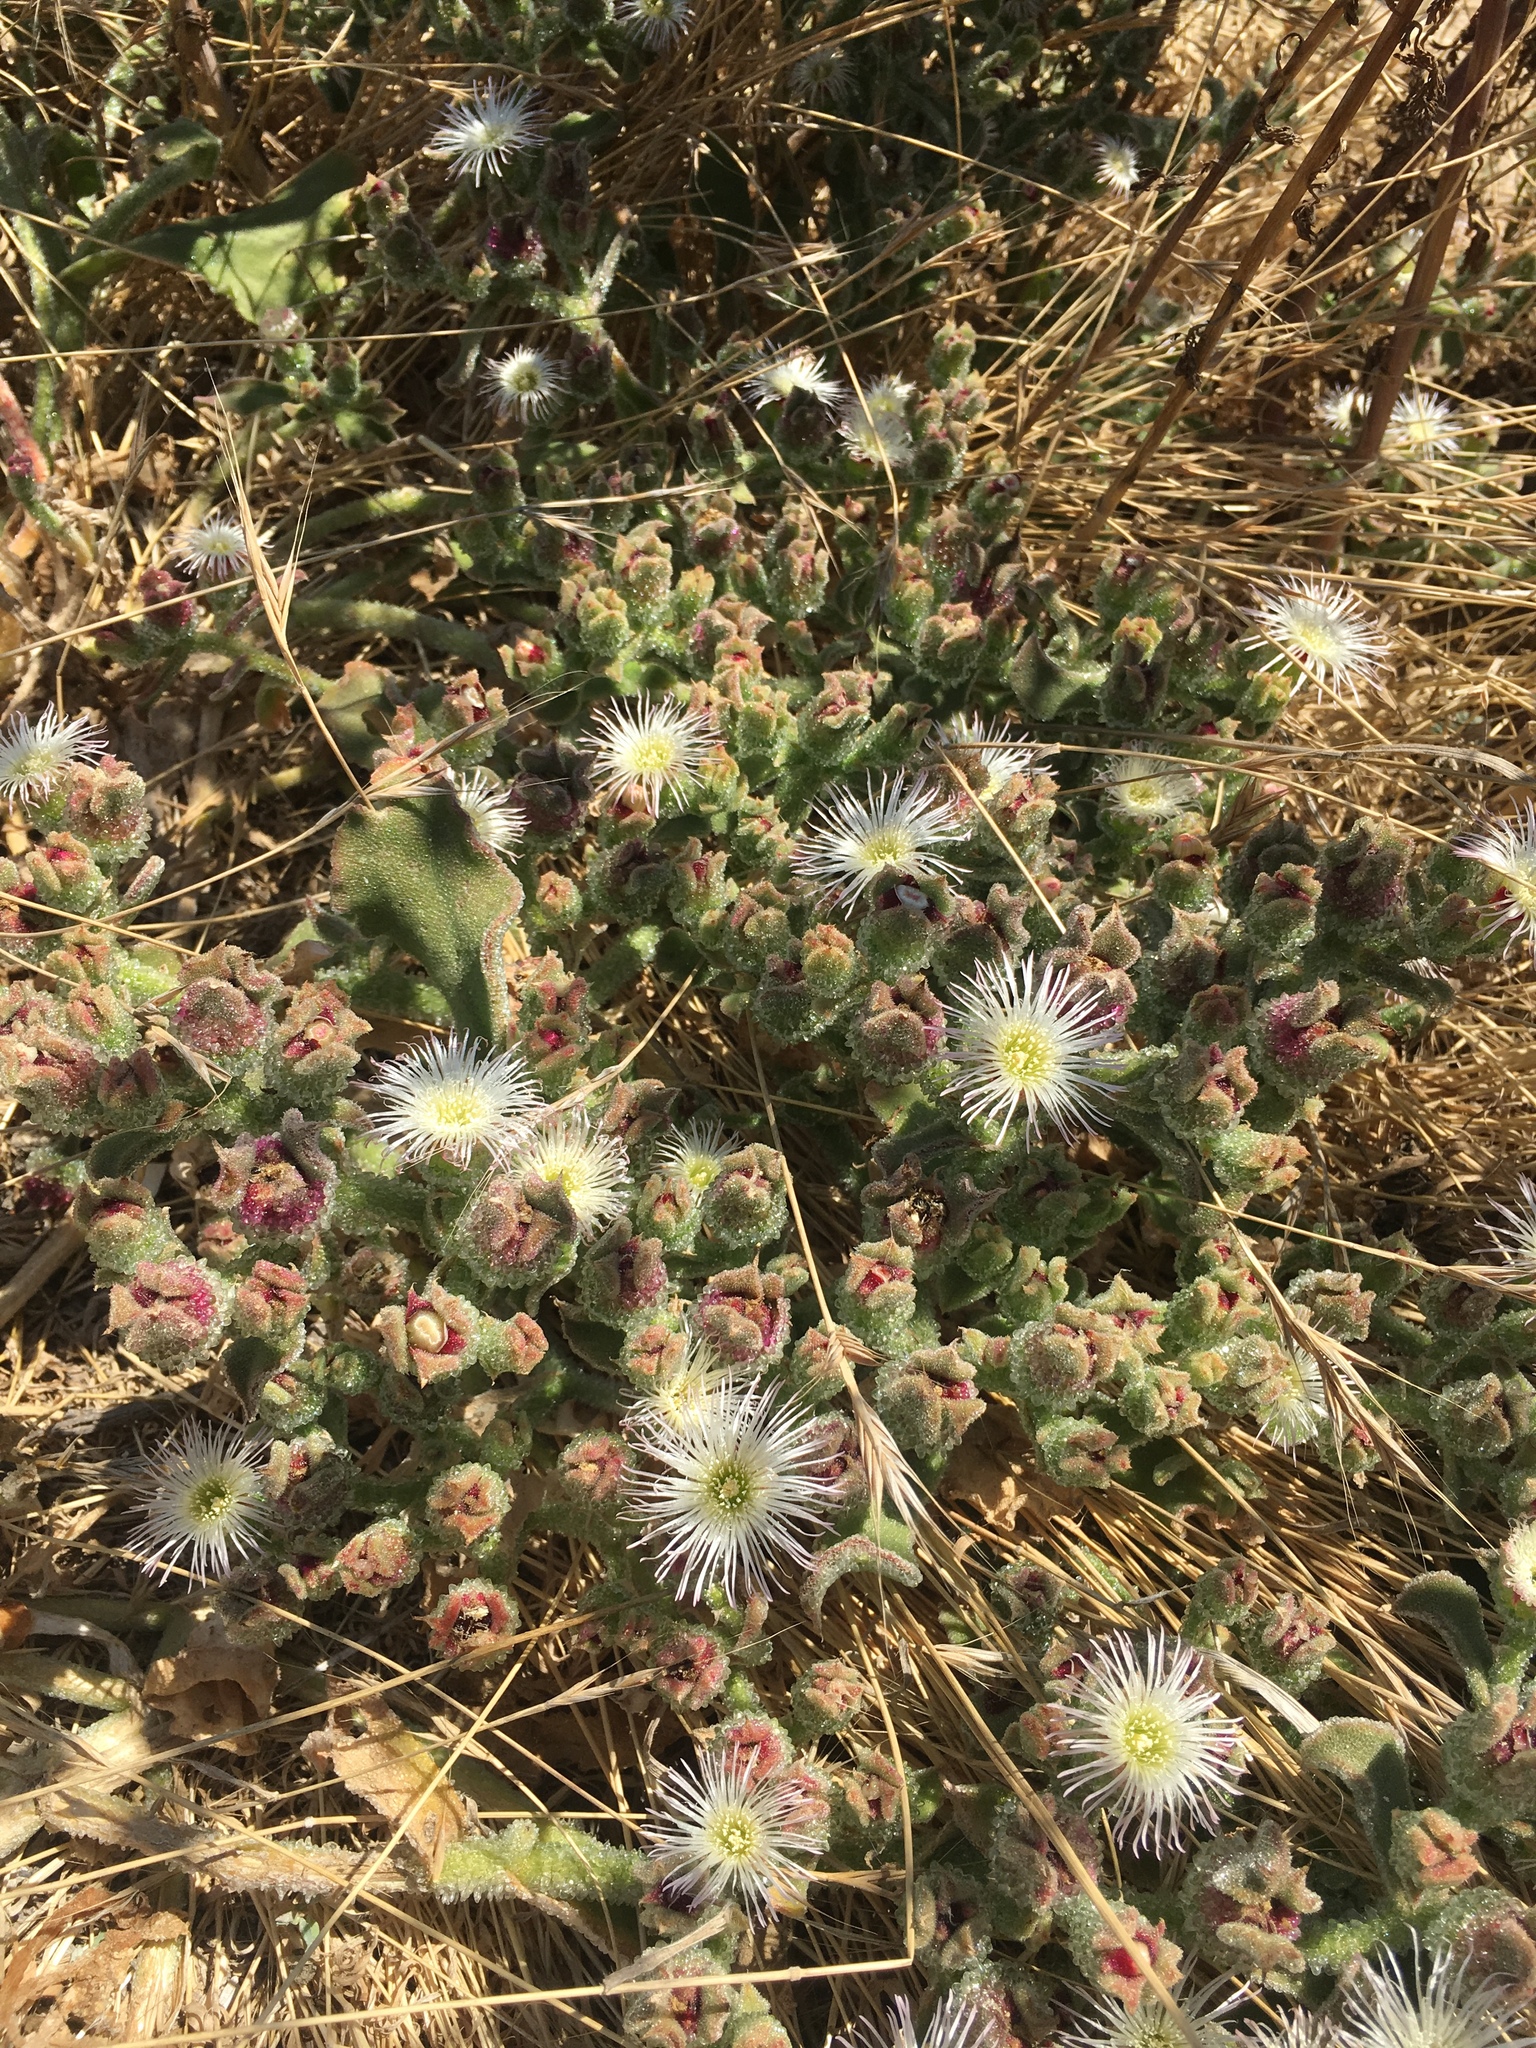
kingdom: Plantae
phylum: Tracheophyta
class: Magnoliopsida
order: Caryophyllales
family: Aizoaceae
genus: Mesembryanthemum
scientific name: Mesembryanthemum crystallinum
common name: Common iceplant
